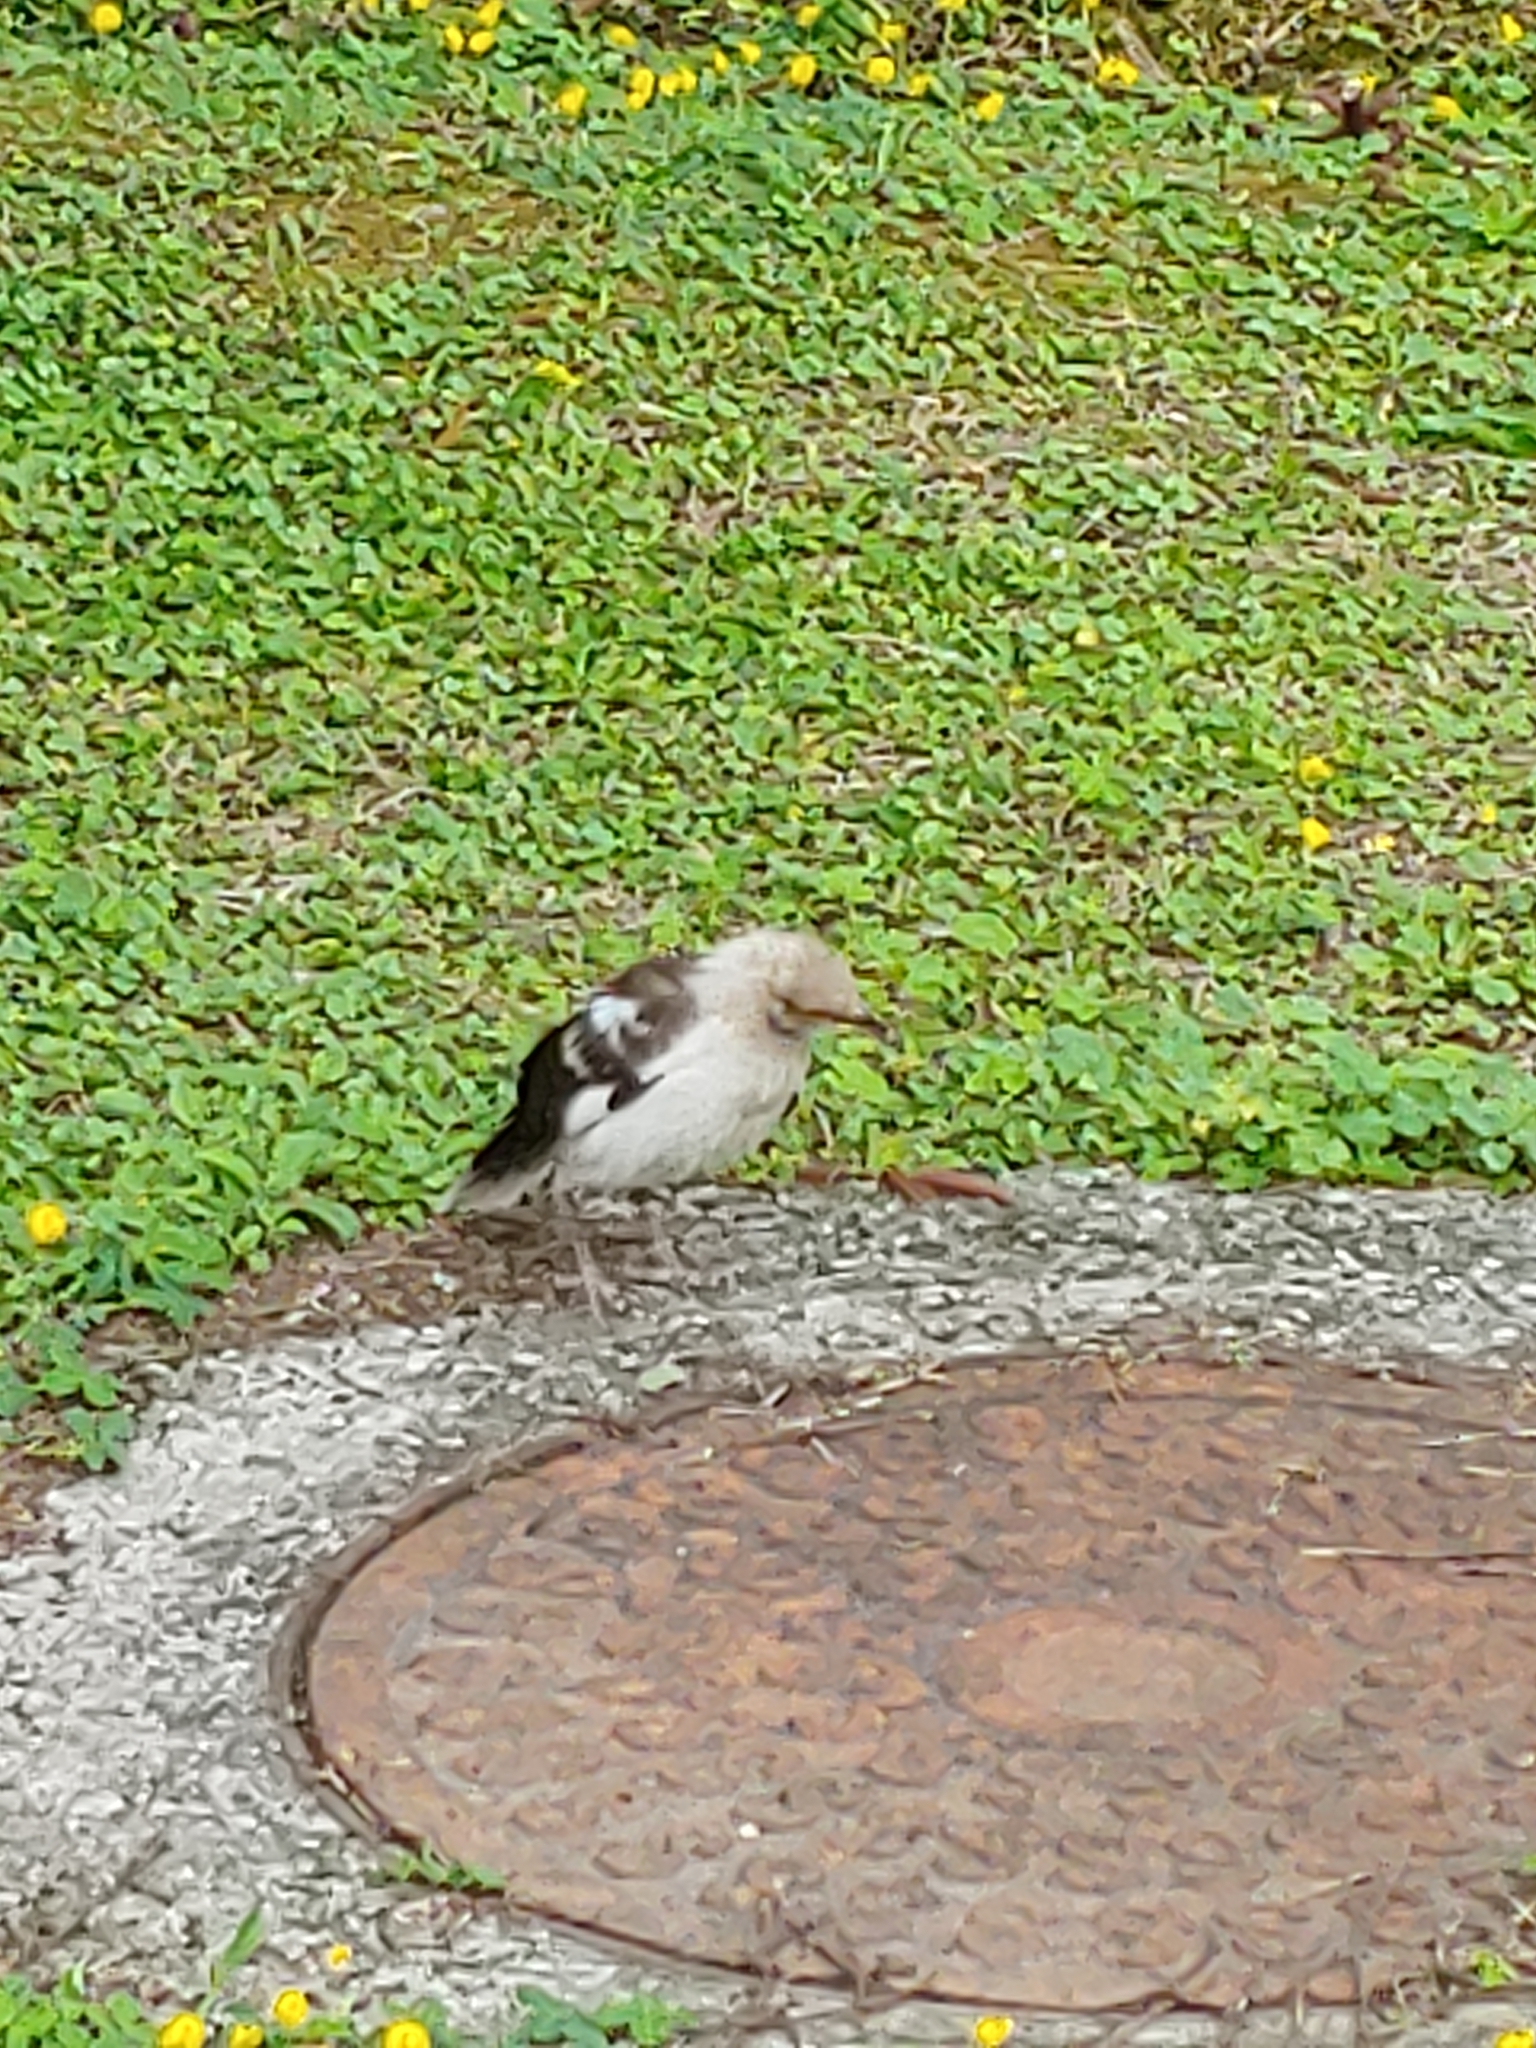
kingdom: Animalia
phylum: Chordata
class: Aves
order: Passeriformes
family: Sturnidae
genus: Gracupica
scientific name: Gracupica nigricollis
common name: Black-collared starling
